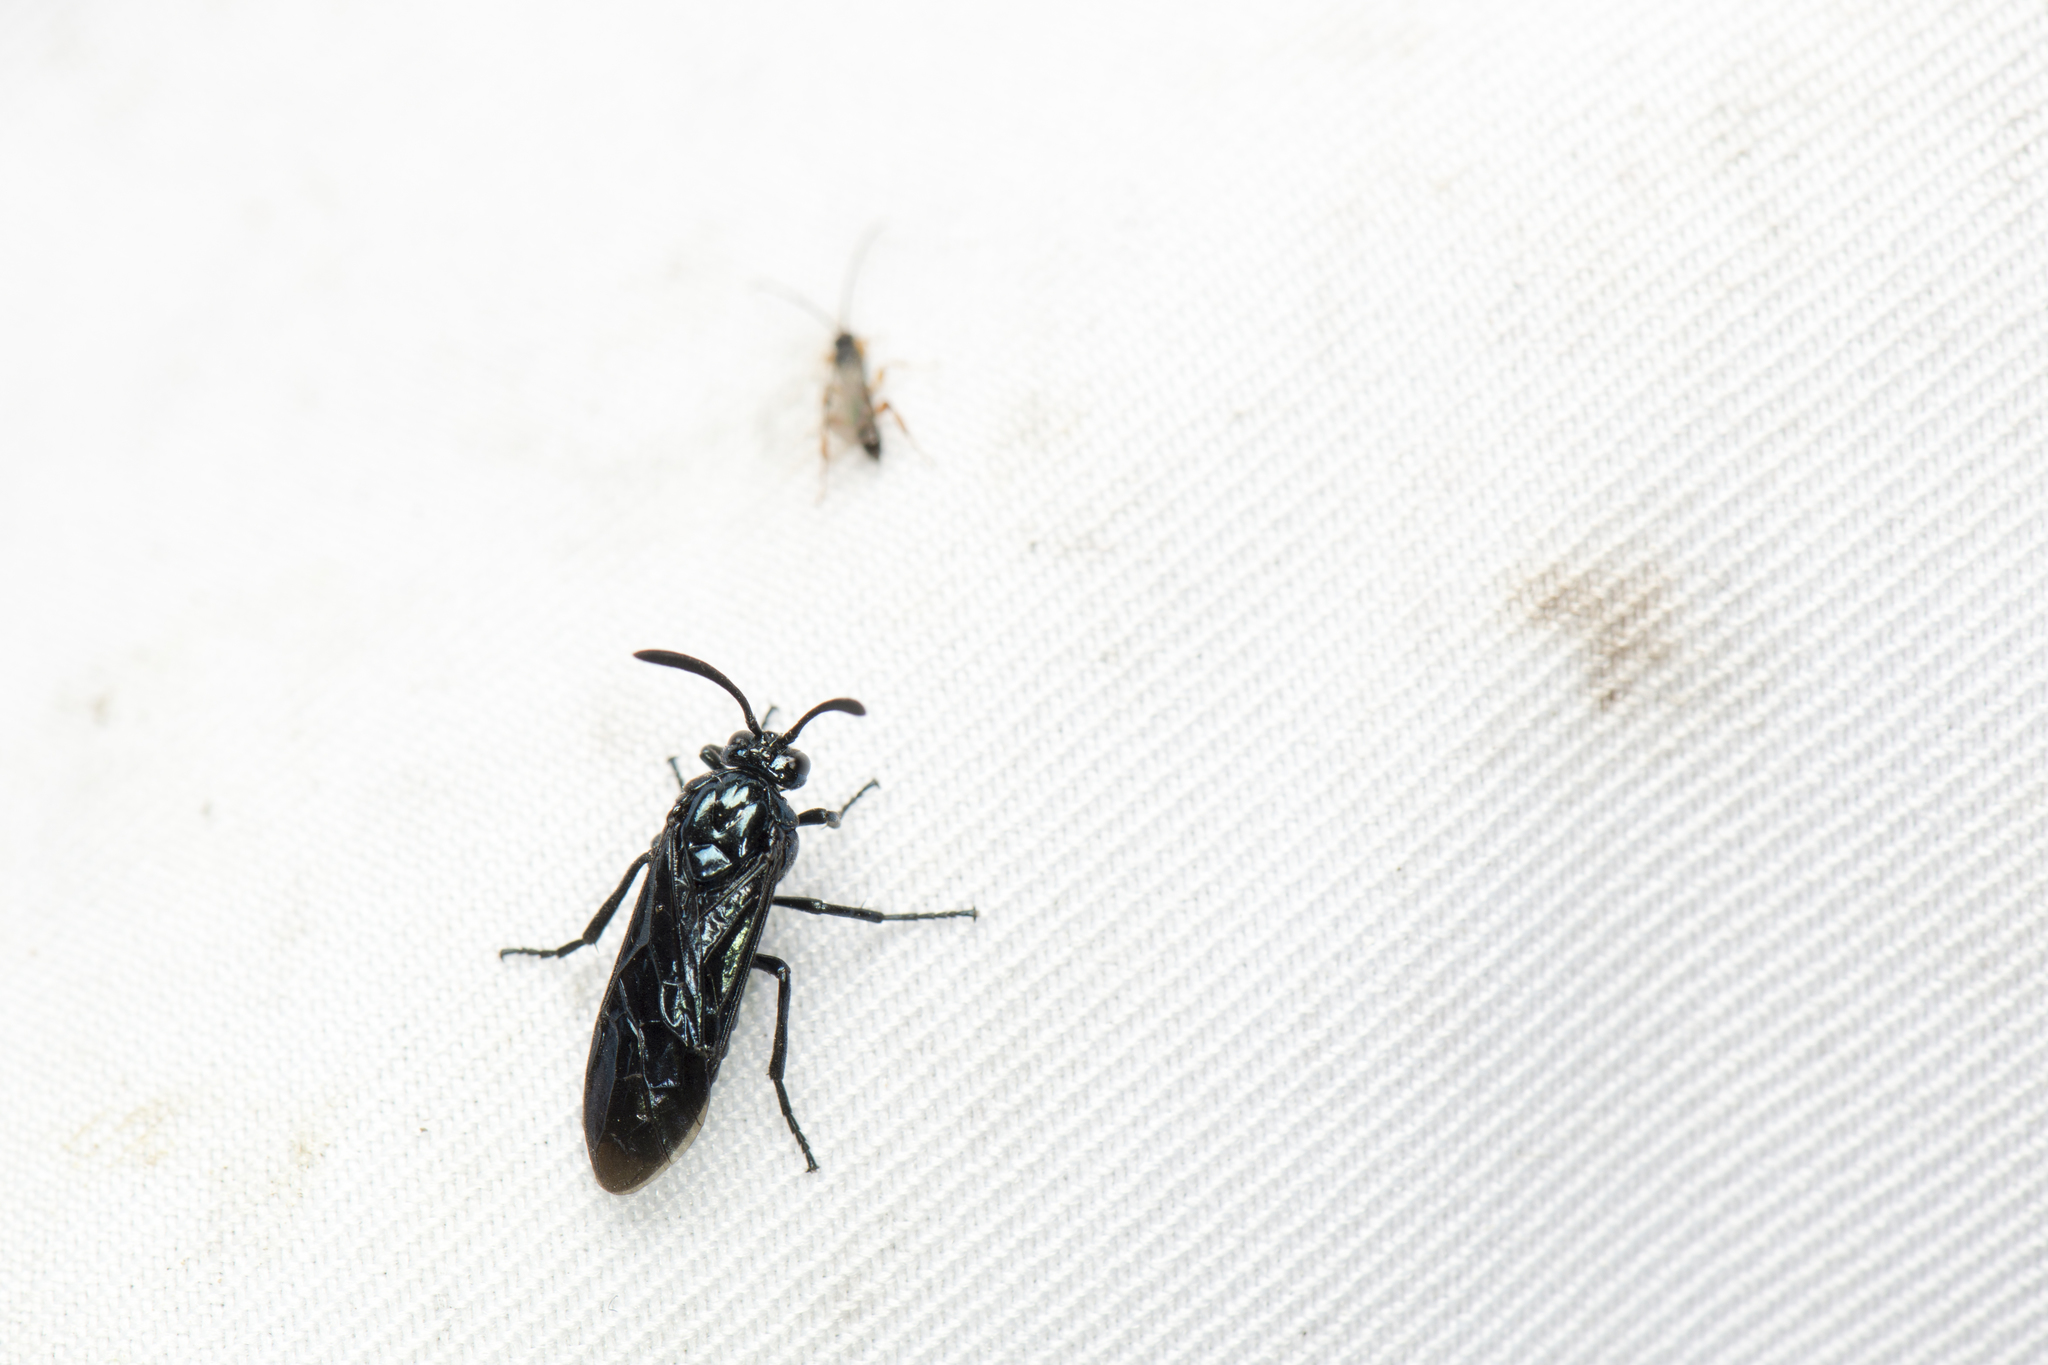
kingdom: Animalia
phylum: Arthropoda
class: Insecta
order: Hymenoptera
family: Argidae
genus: Arge
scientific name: Arge similis
